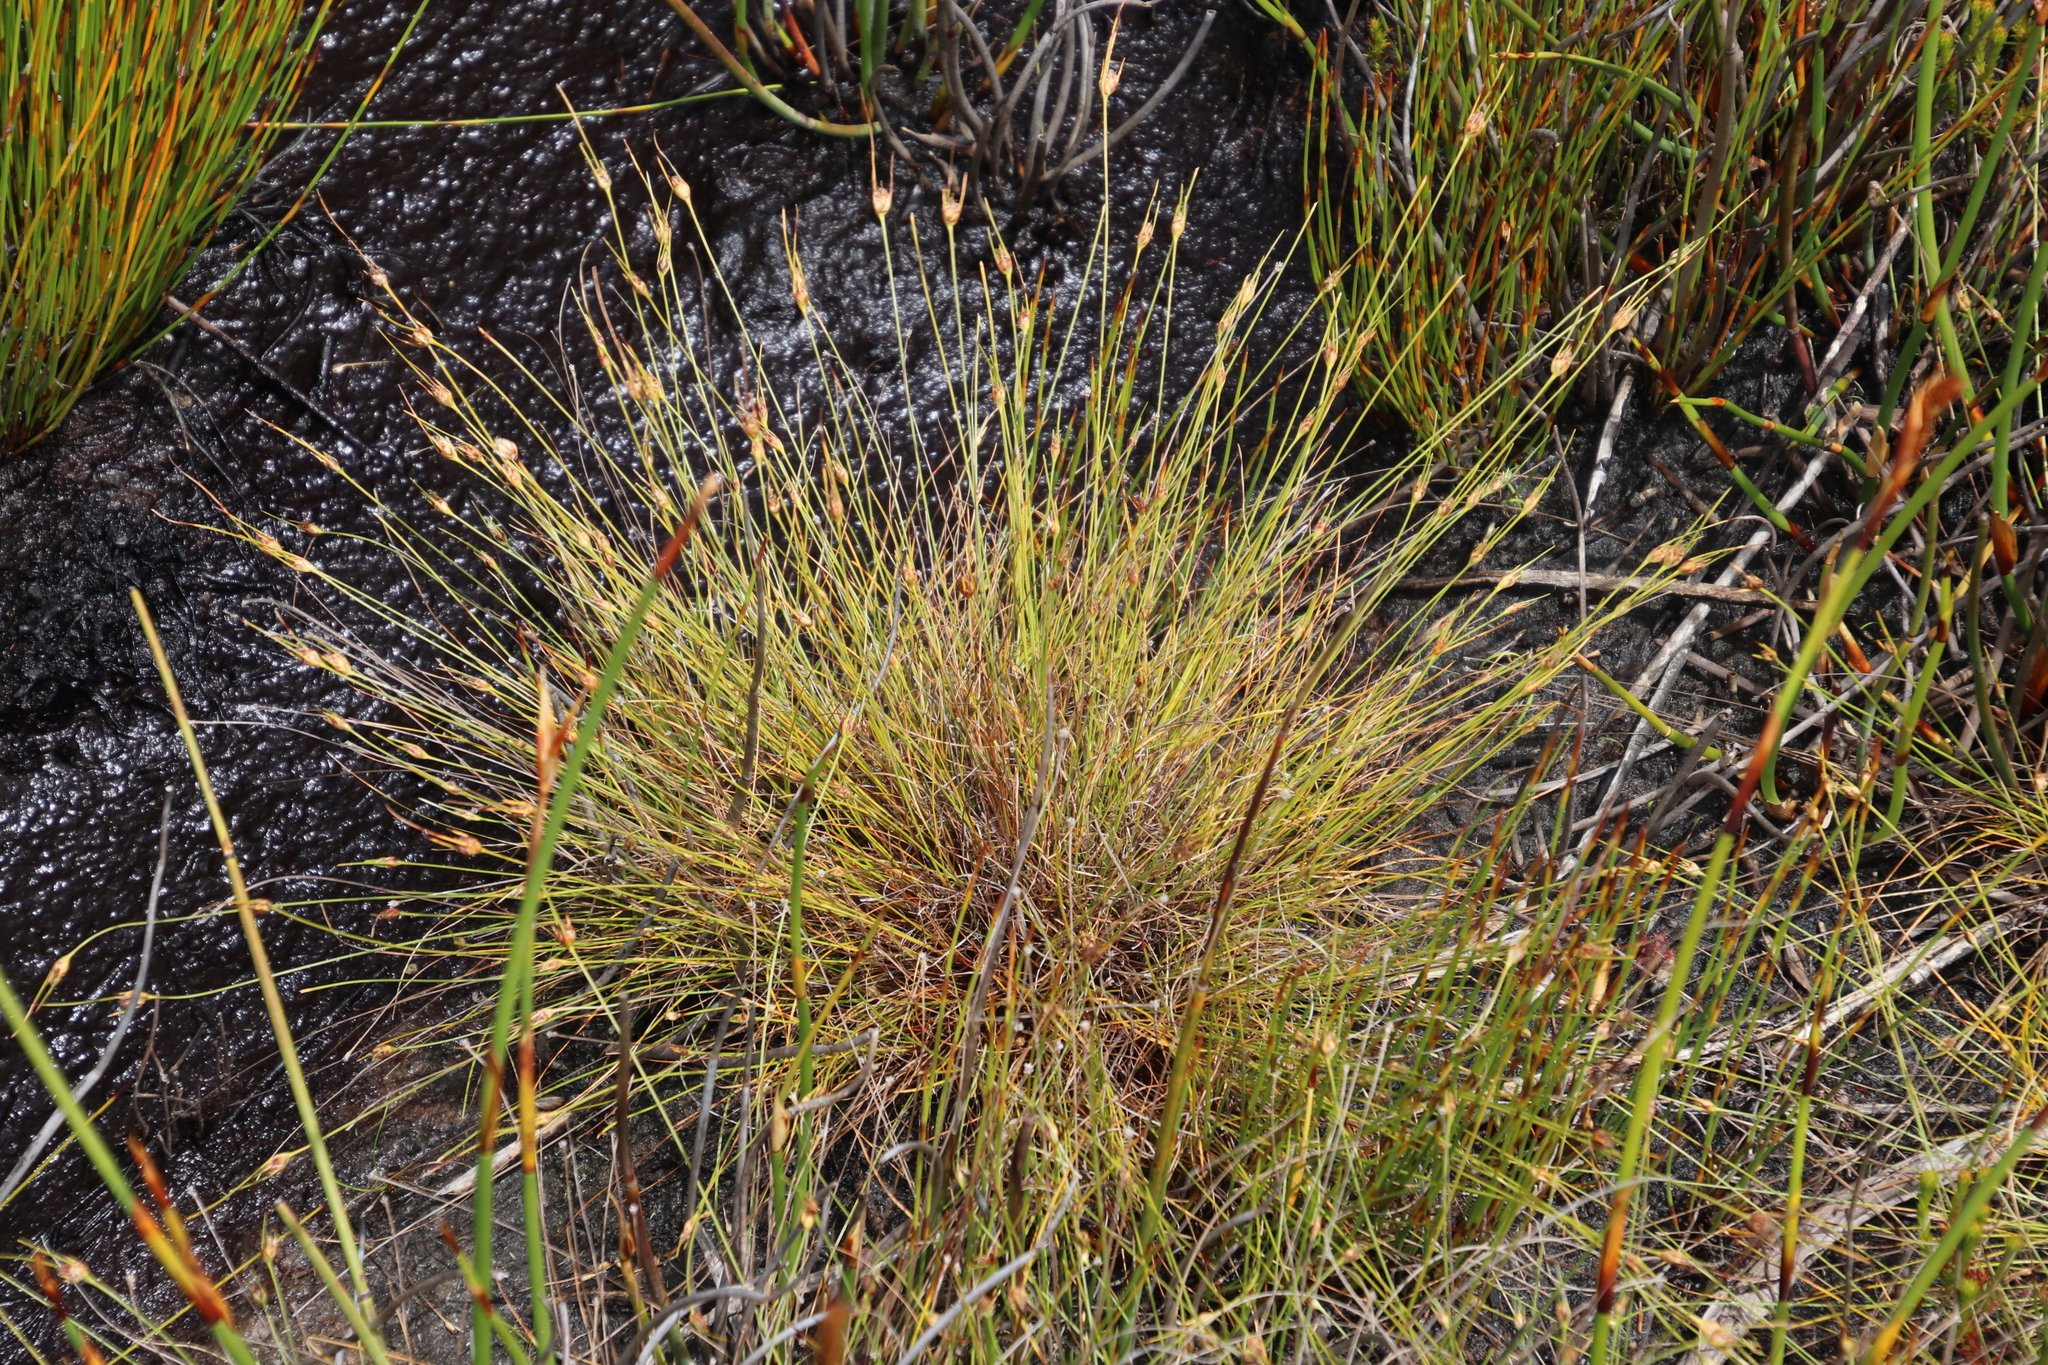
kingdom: Plantae
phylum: Tracheophyta
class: Liliopsida
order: Poales
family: Cyperaceae
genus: Ficinia
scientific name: Ficinia capitella
